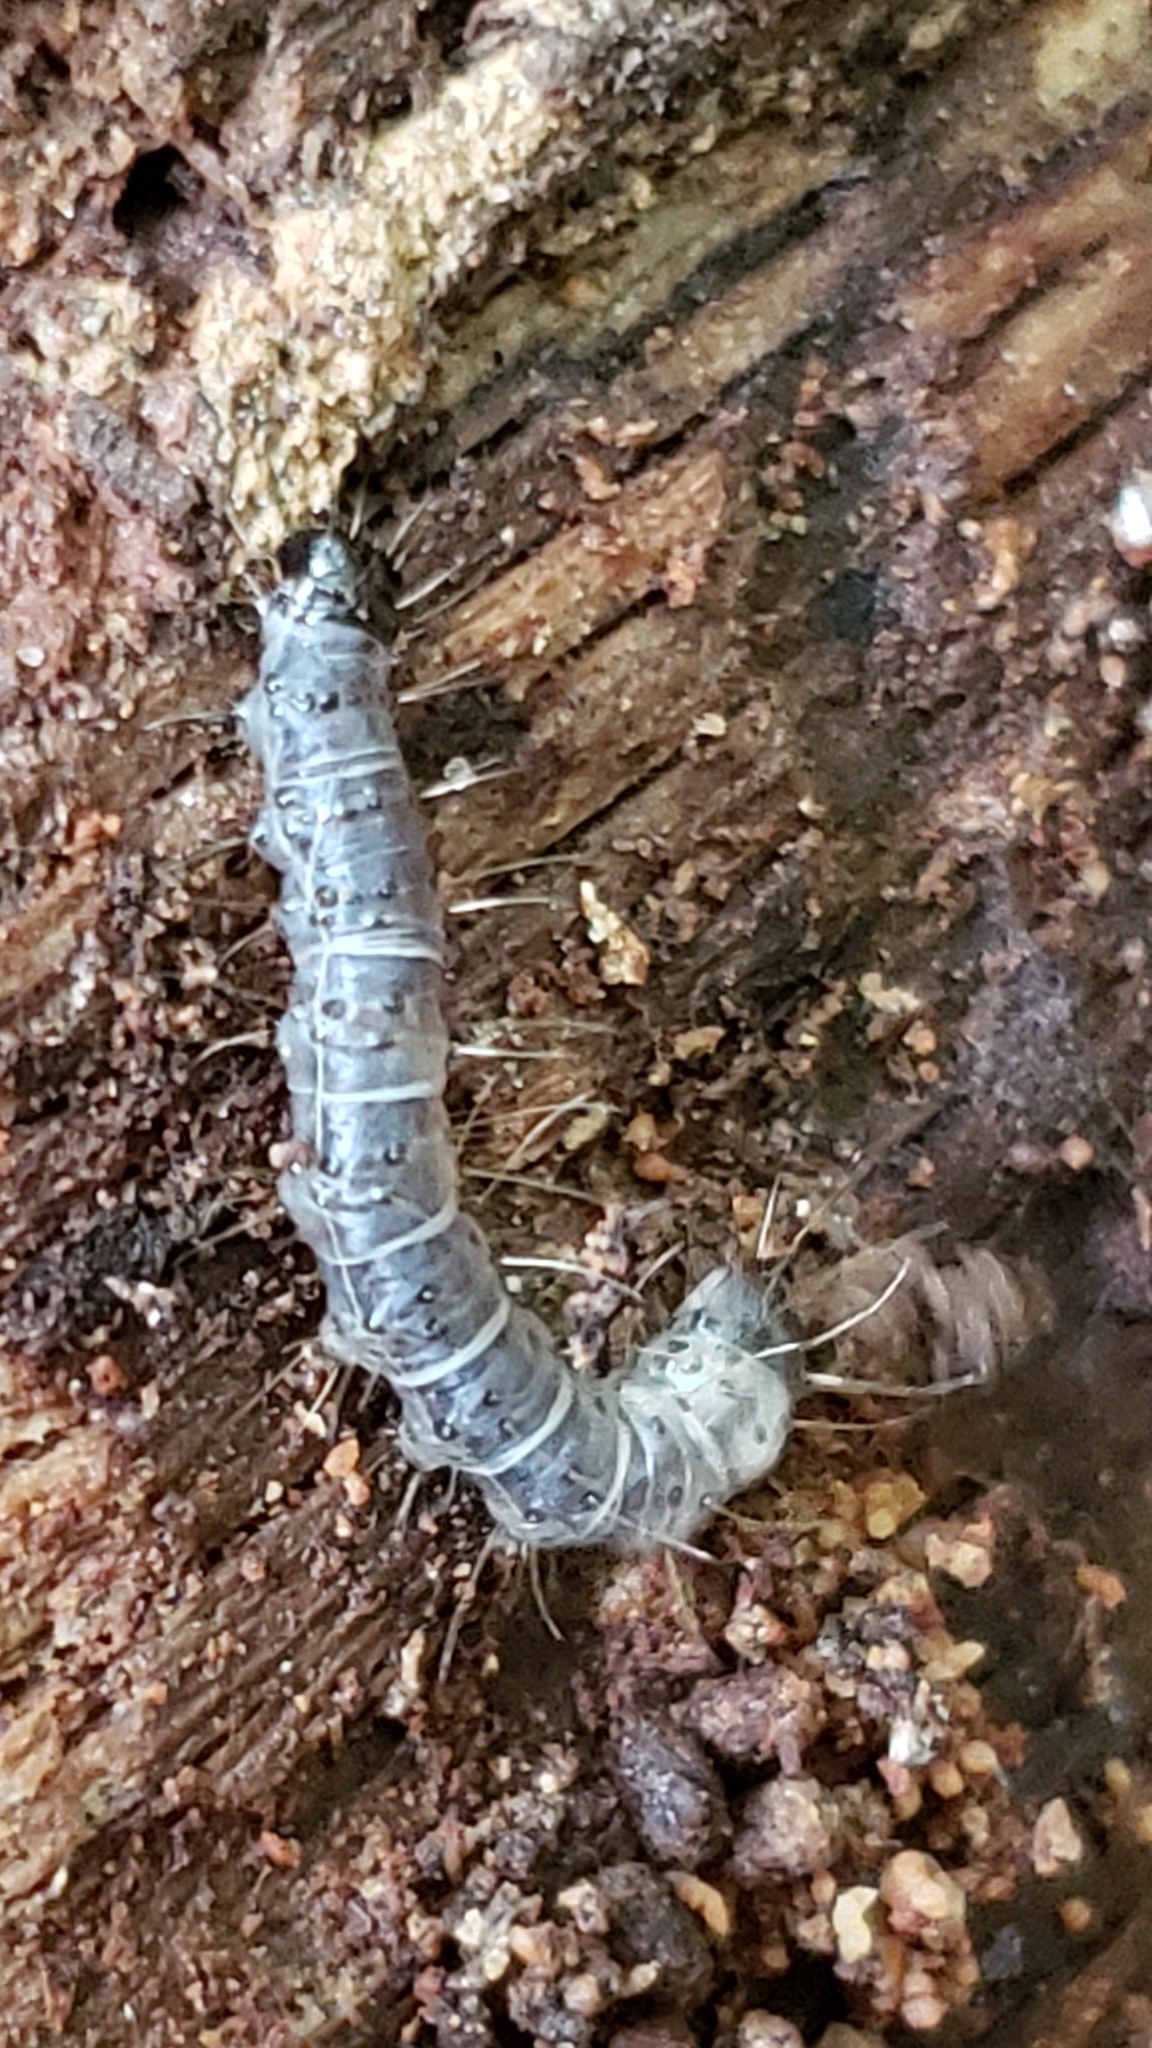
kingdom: Animalia
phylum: Arthropoda
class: Insecta
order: Lepidoptera
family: Erebidae
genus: Scolecocampa
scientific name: Scolecocampa liburna
